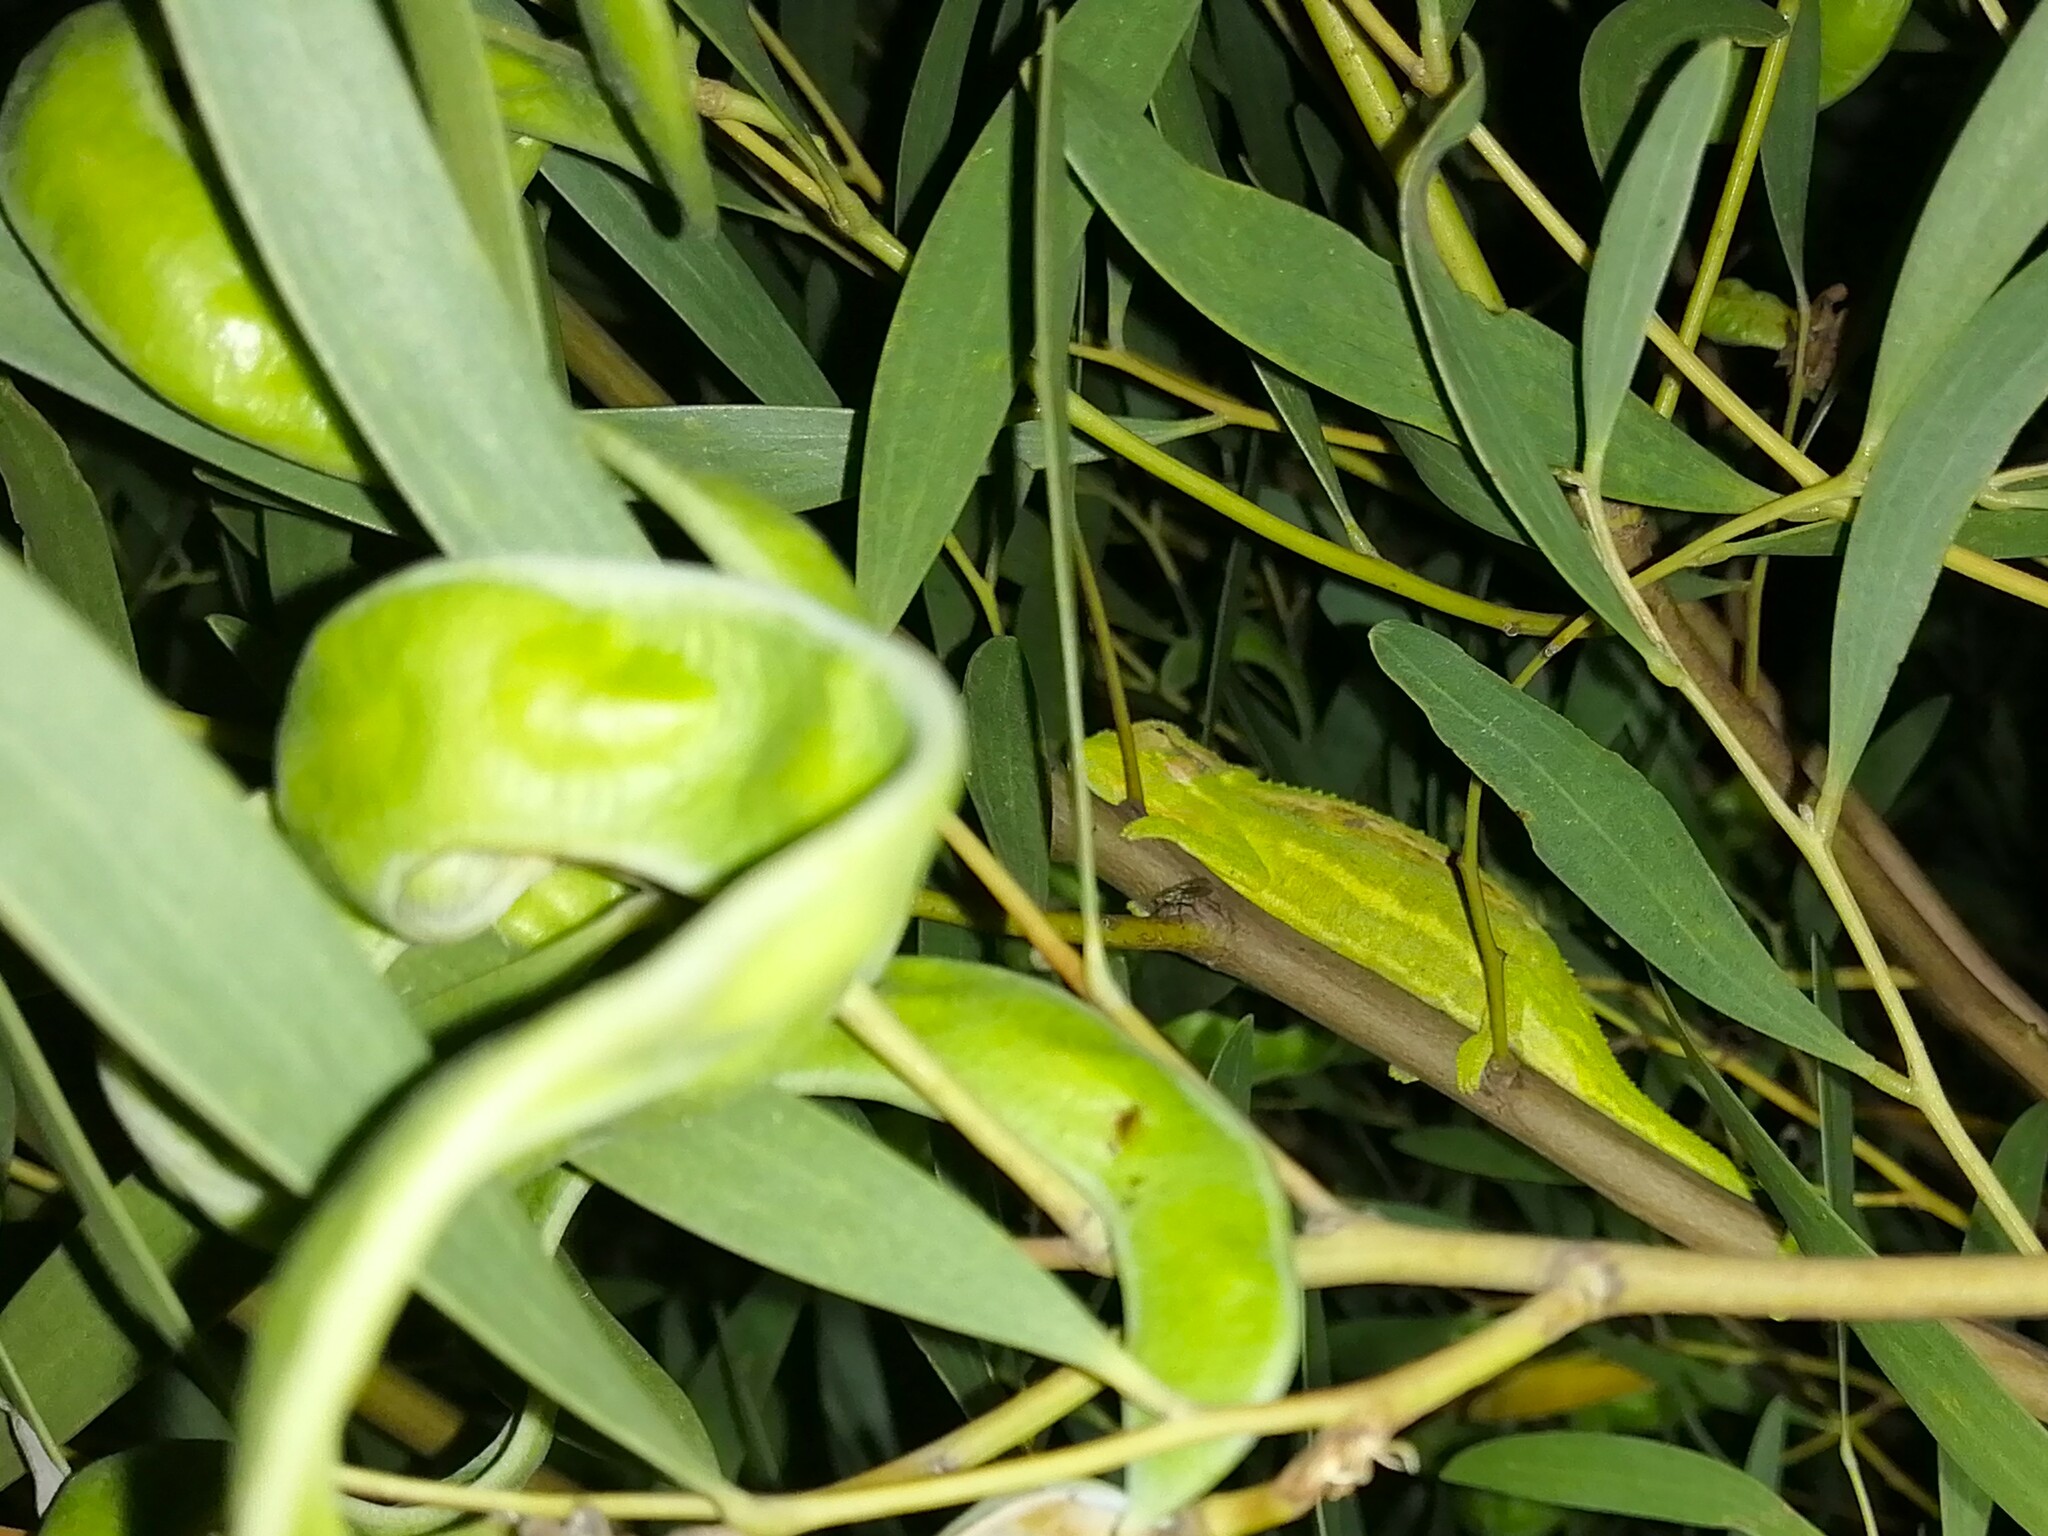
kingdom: Animalia
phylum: Chordata
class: Squamata
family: Chamaeleonidae
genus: Bradypodion
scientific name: Bradypodion pumilum
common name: Cape dwarf chameleon
